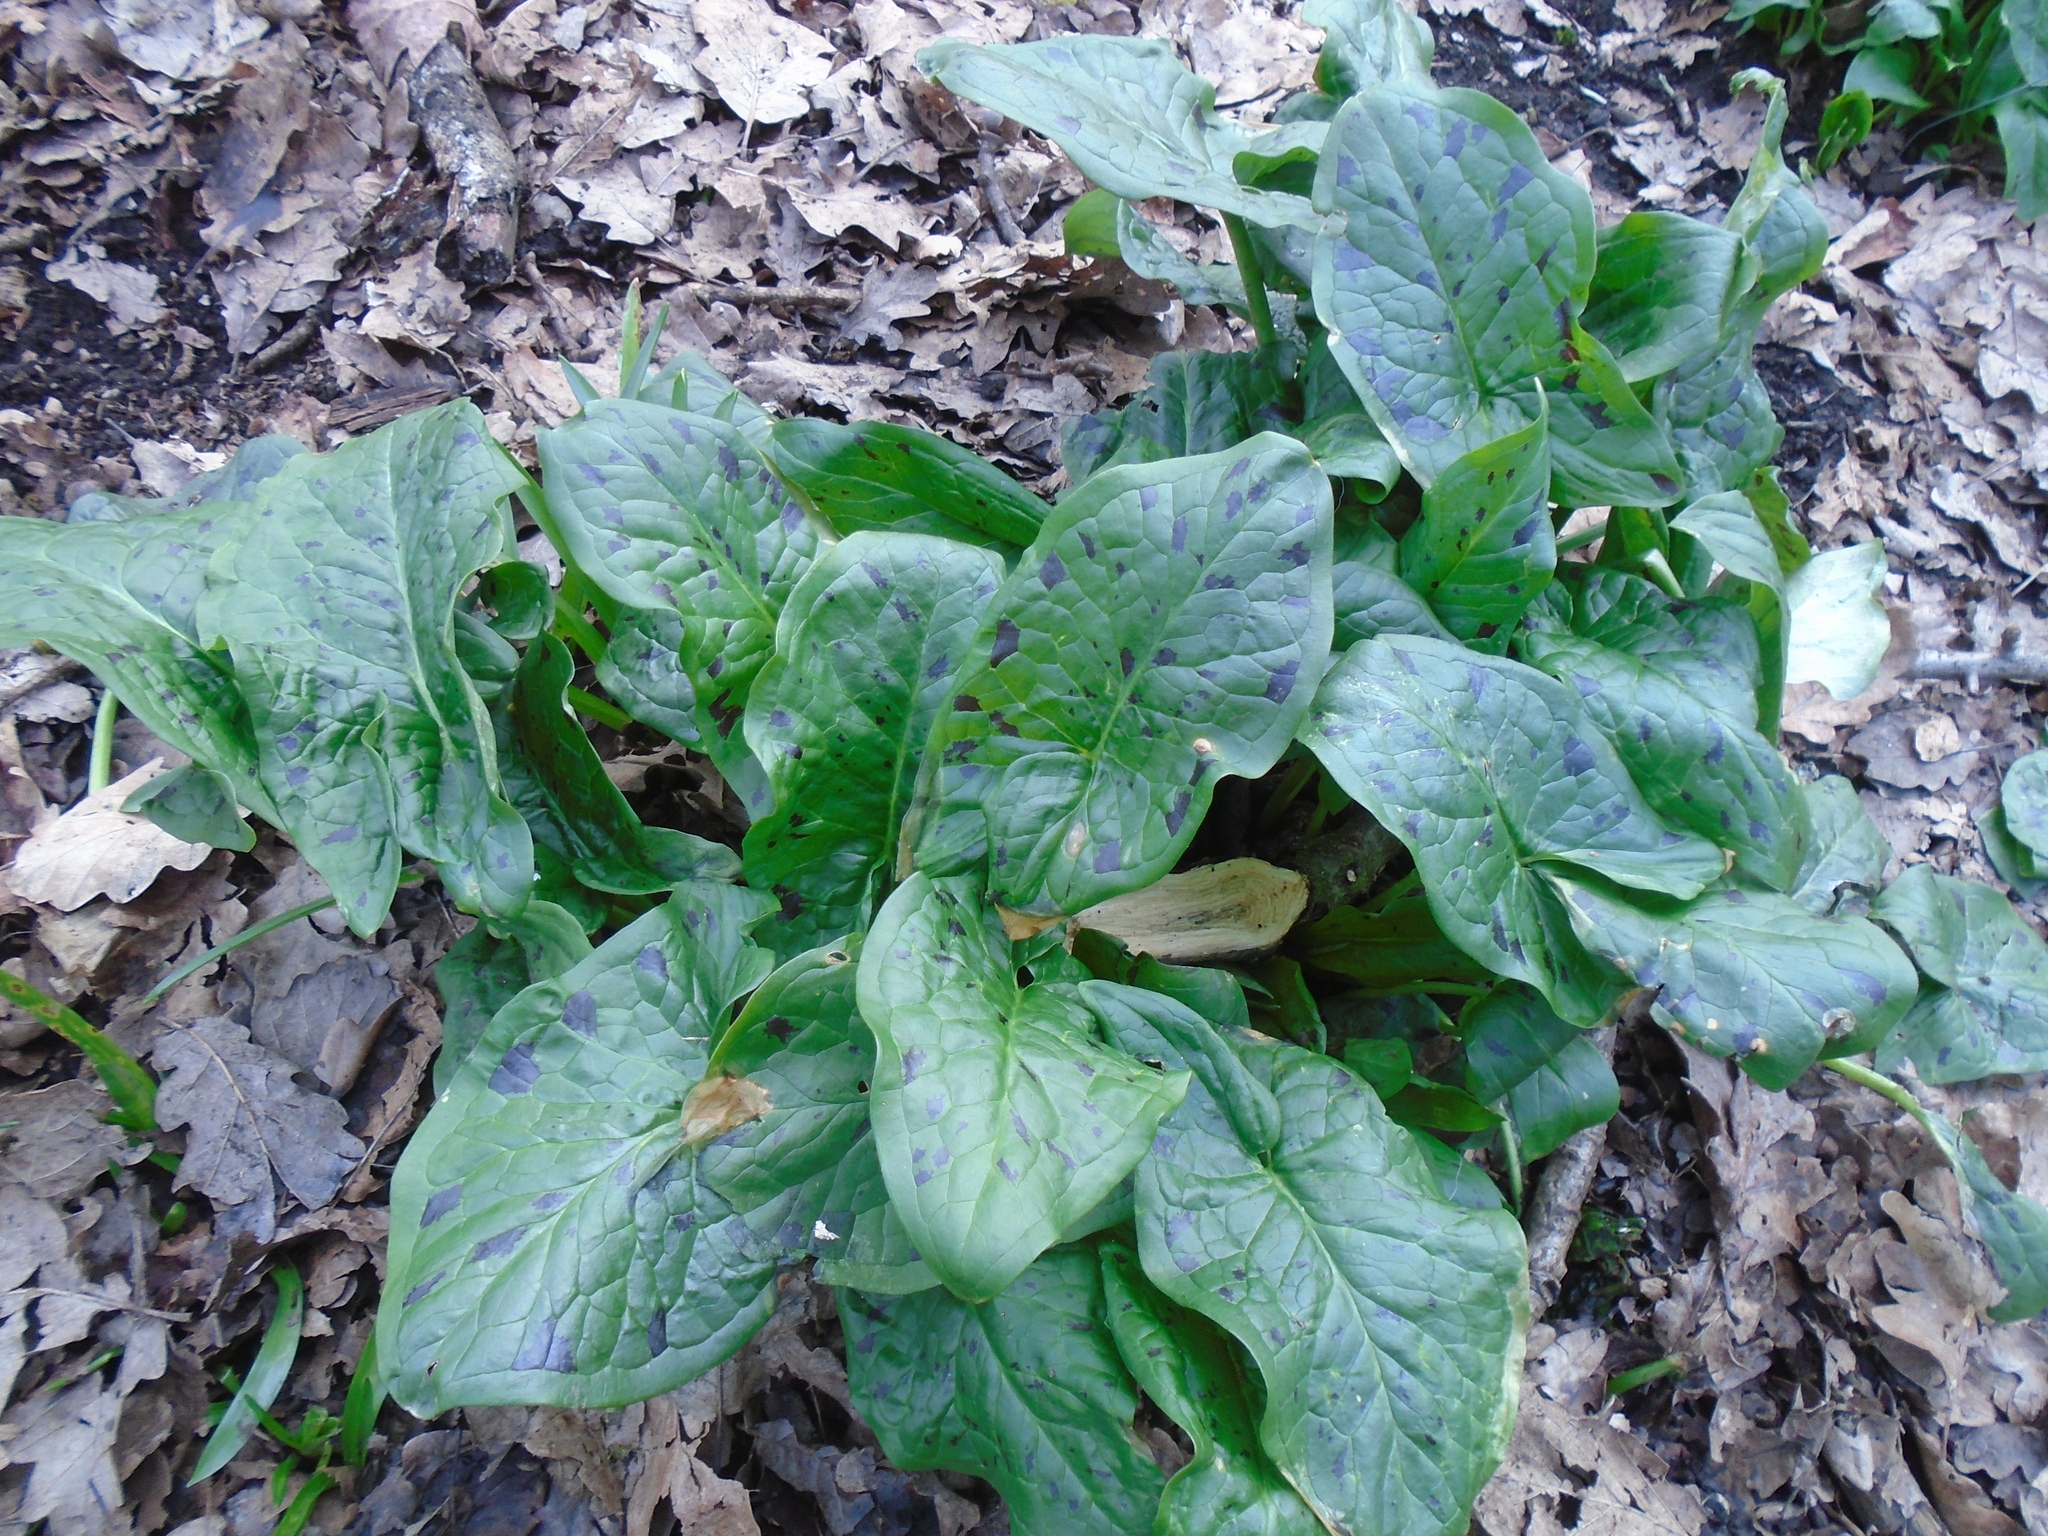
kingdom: Plantae
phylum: Tracheophyta
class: Liliopsida
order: Alismatales
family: Araceae
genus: Arum
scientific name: Arum maculatum
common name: Lords-and-ladies
